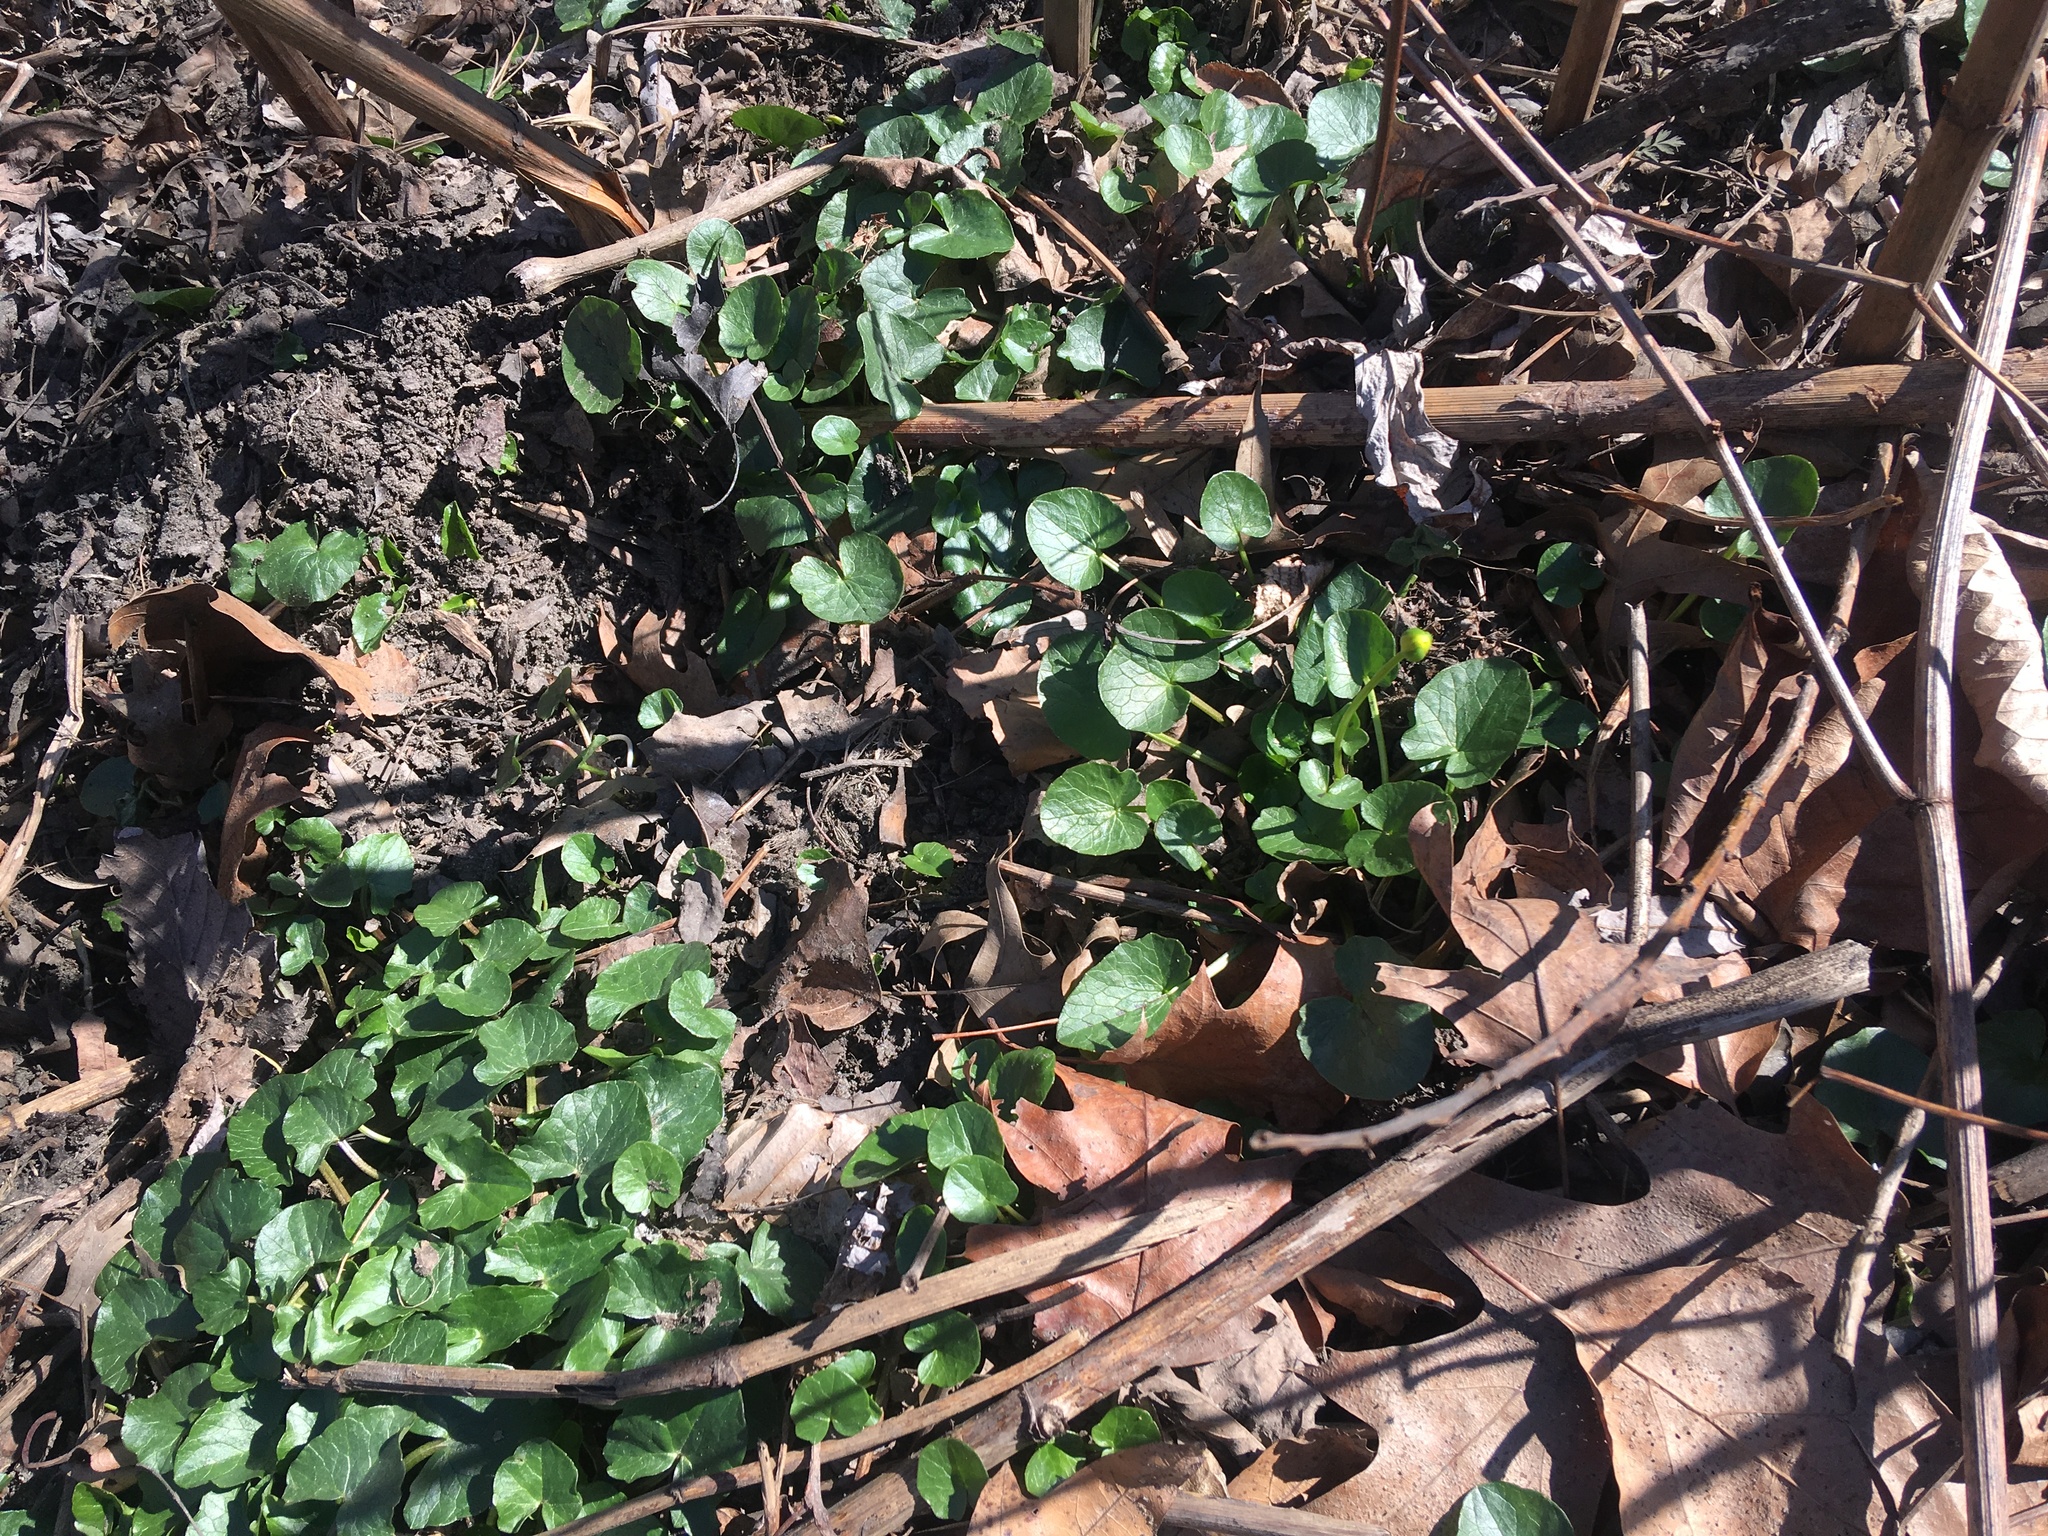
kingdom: Plantae
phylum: Tracheophyta
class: Magnoliopsida
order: Ranunculales
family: Ranunculaceae
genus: Ficaria
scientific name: Ficaria verna
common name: Lesser celandine
